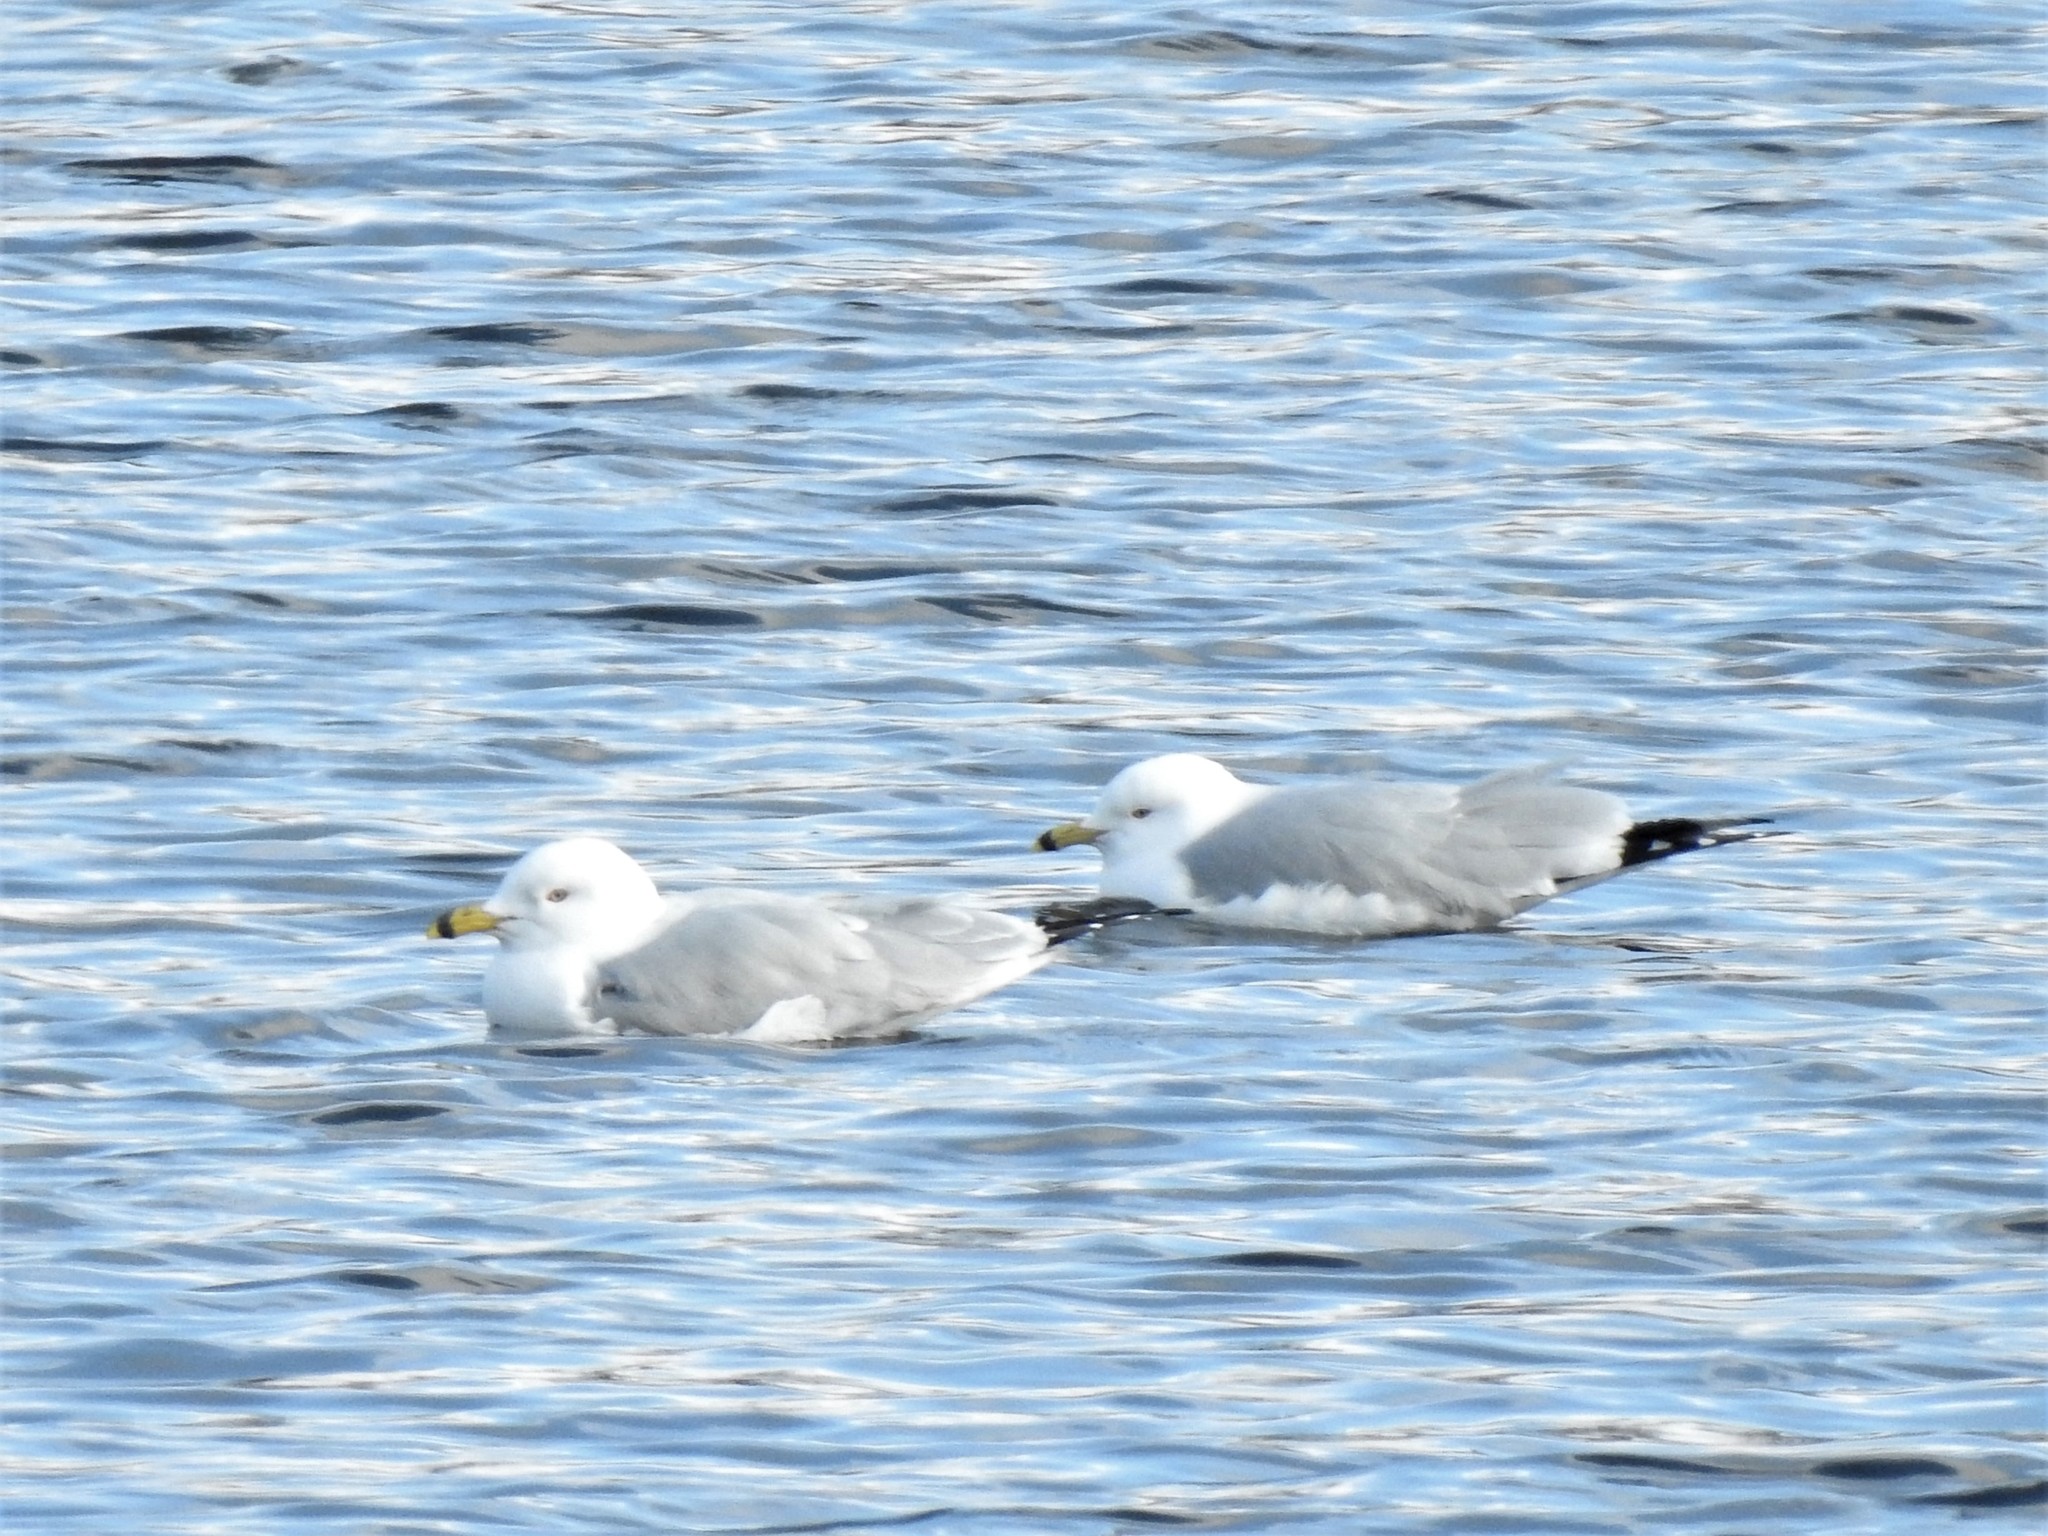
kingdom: Animalia
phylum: Chordata
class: Aves
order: Charadriiformes
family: Laridae
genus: Larus
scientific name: Larus delawarensis
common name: Ring-billed gull
